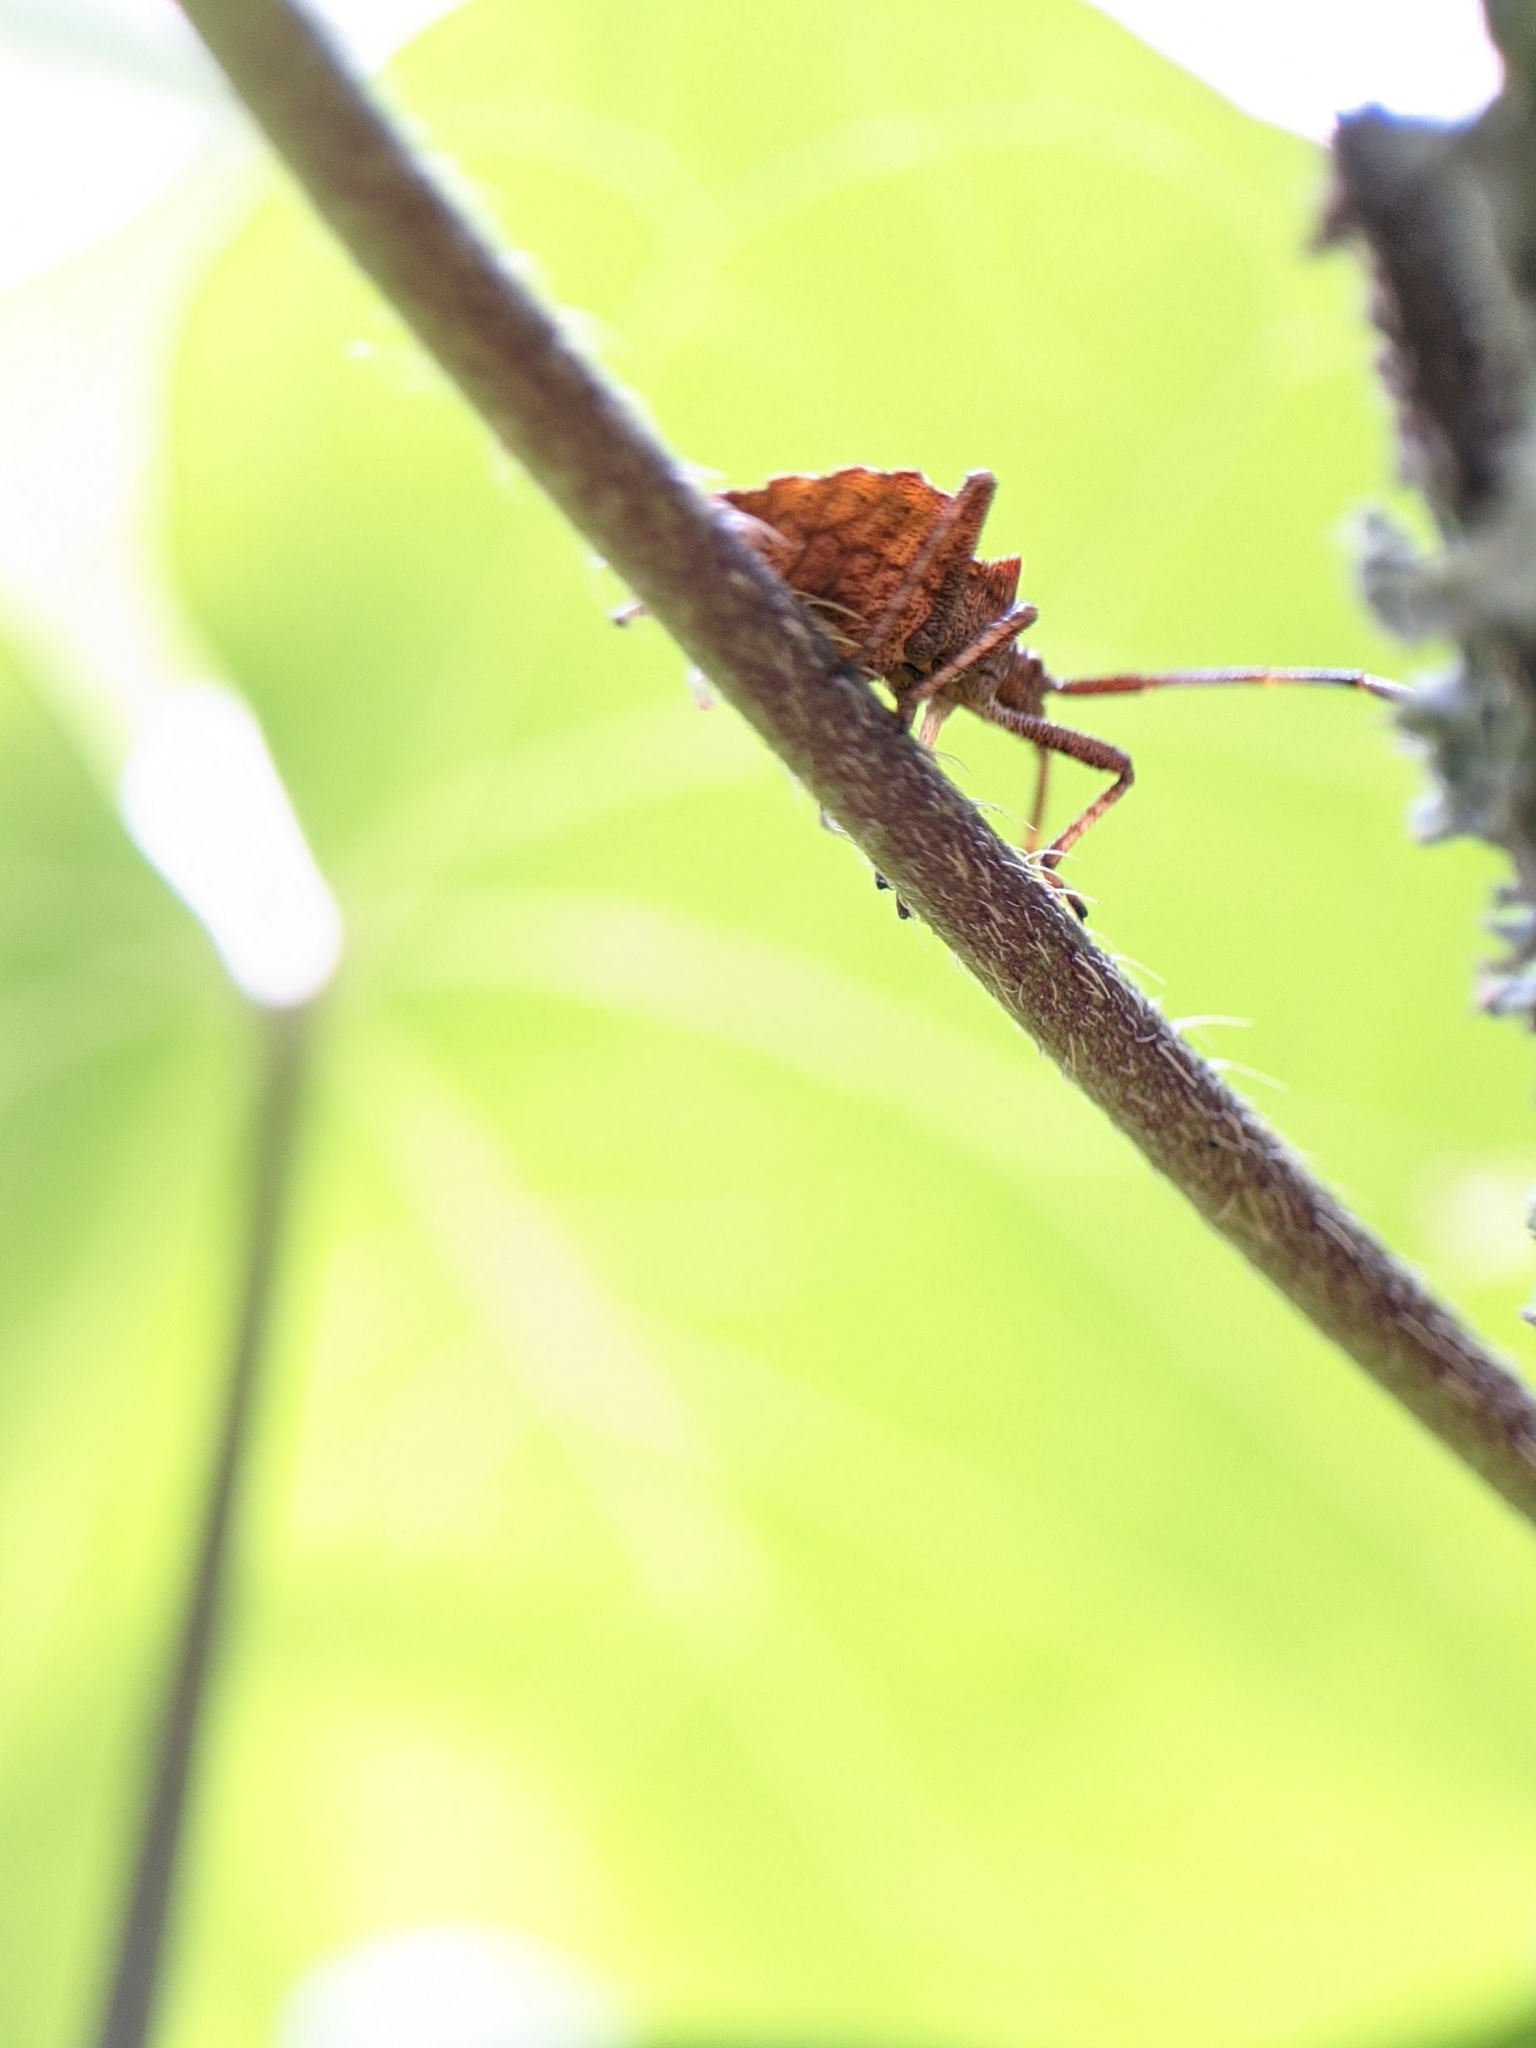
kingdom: Animalia
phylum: Arthropoda
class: Insecta
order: Hemiptera
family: Coreidae
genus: Coreus
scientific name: Coreus marginatus
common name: Dock bug
